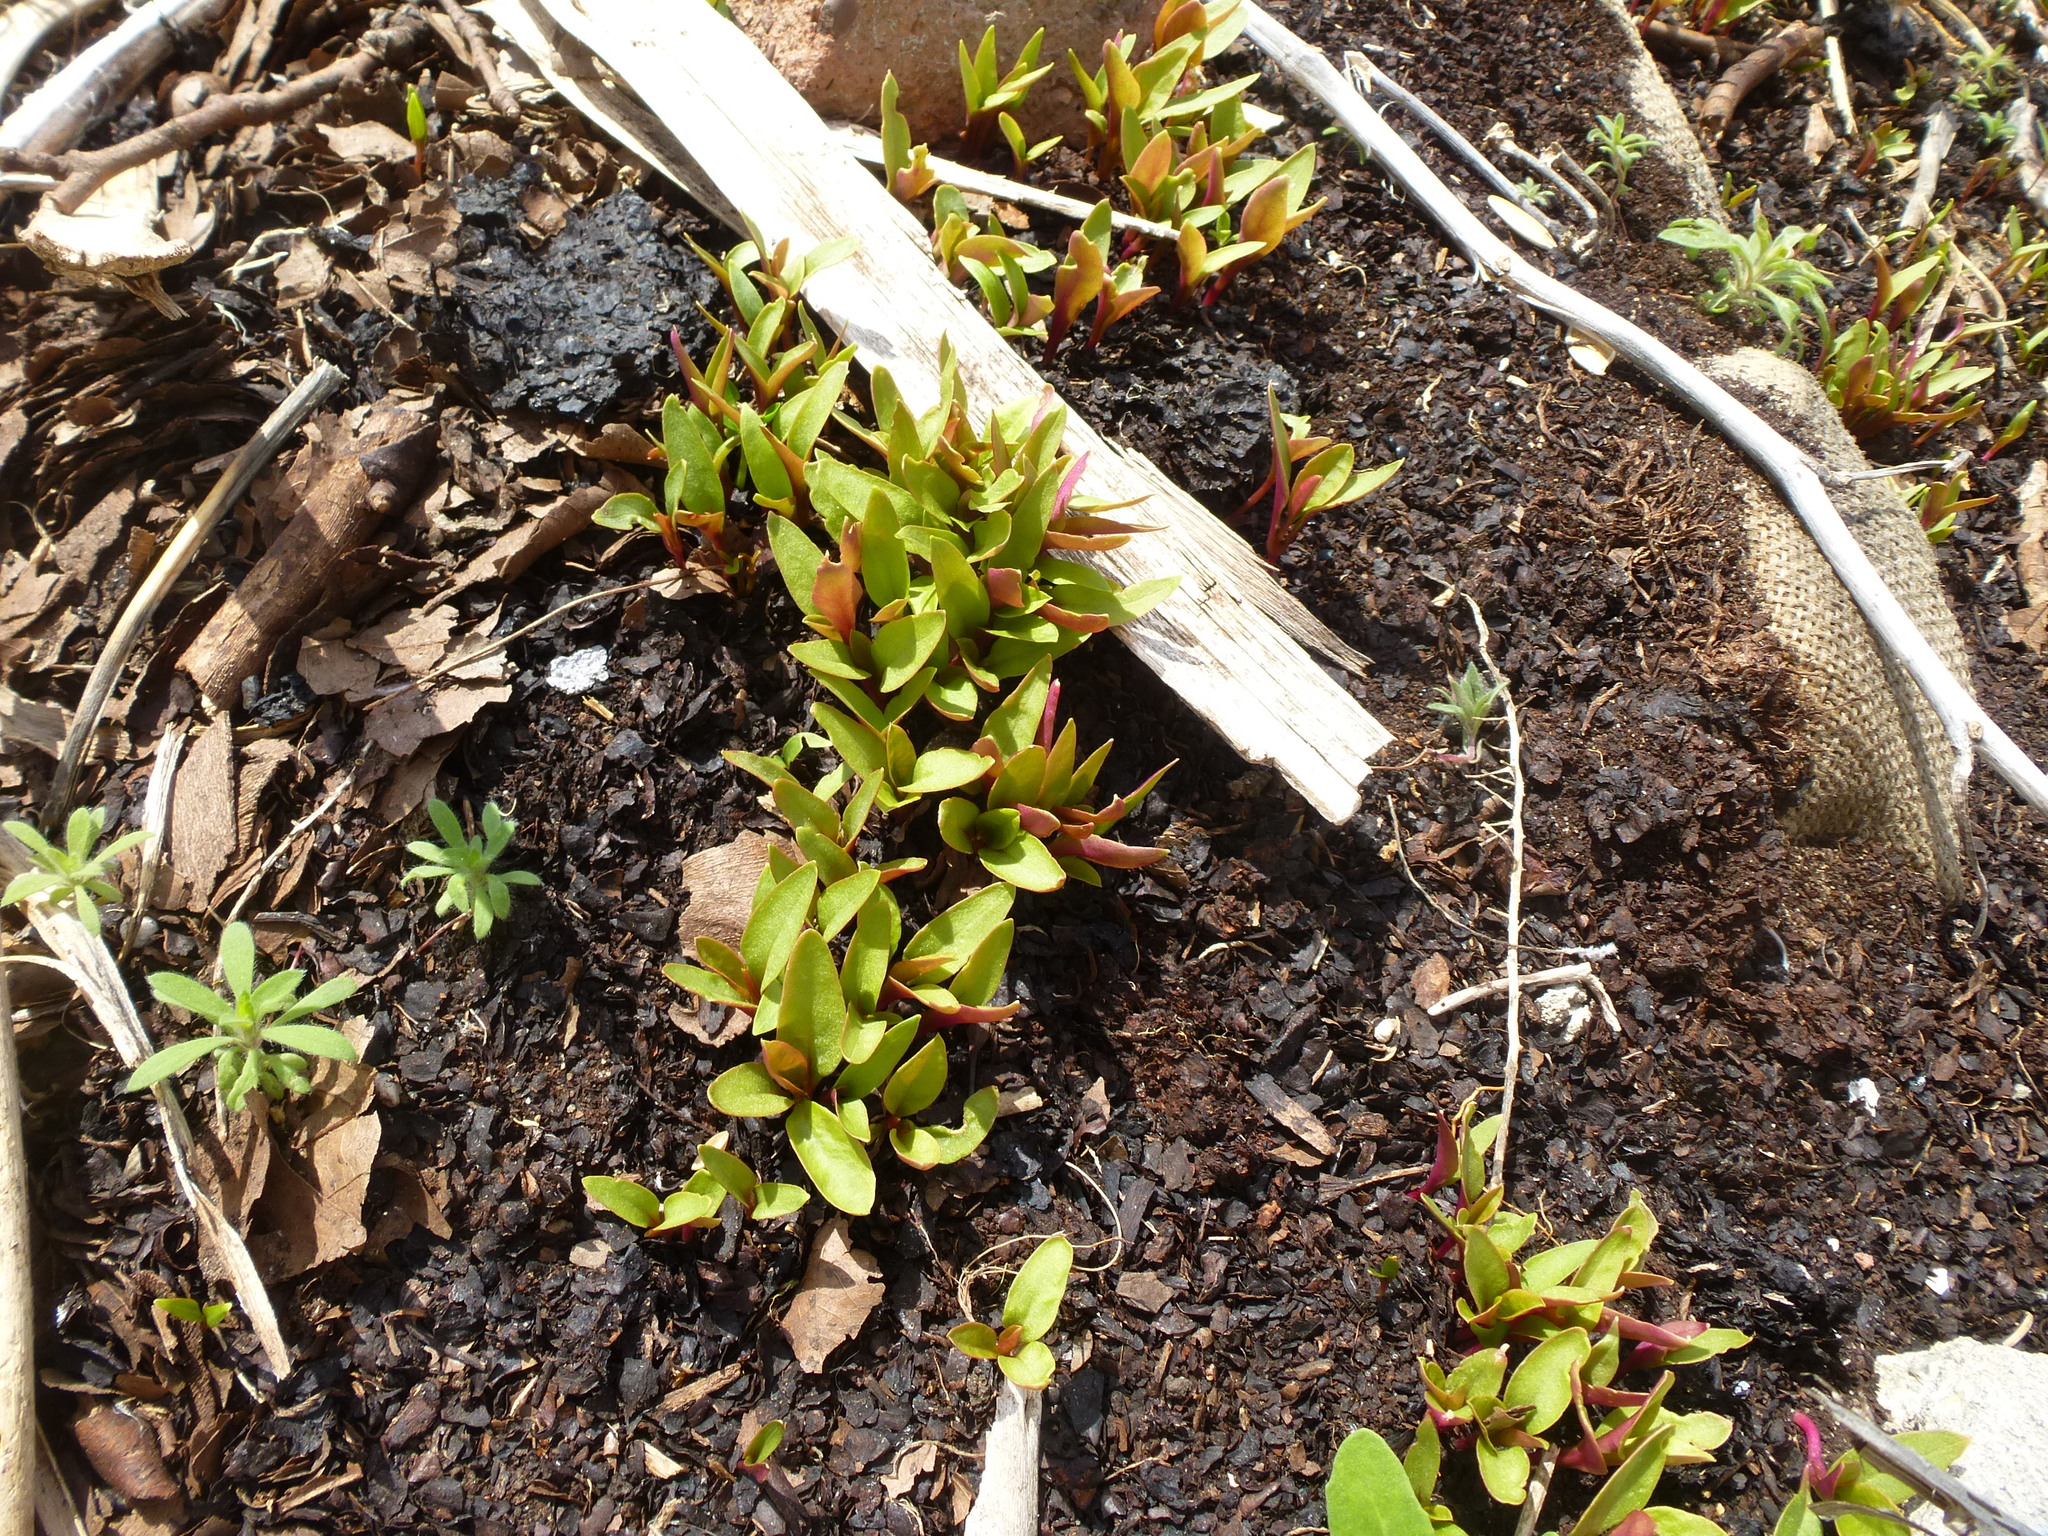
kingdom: Plantae
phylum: Tracheophyta
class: Magnoliopsida
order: Caryophyllales
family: Phytolaccaceae
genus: Phytolacca
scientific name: Phytolacca americana
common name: American pokeweed
